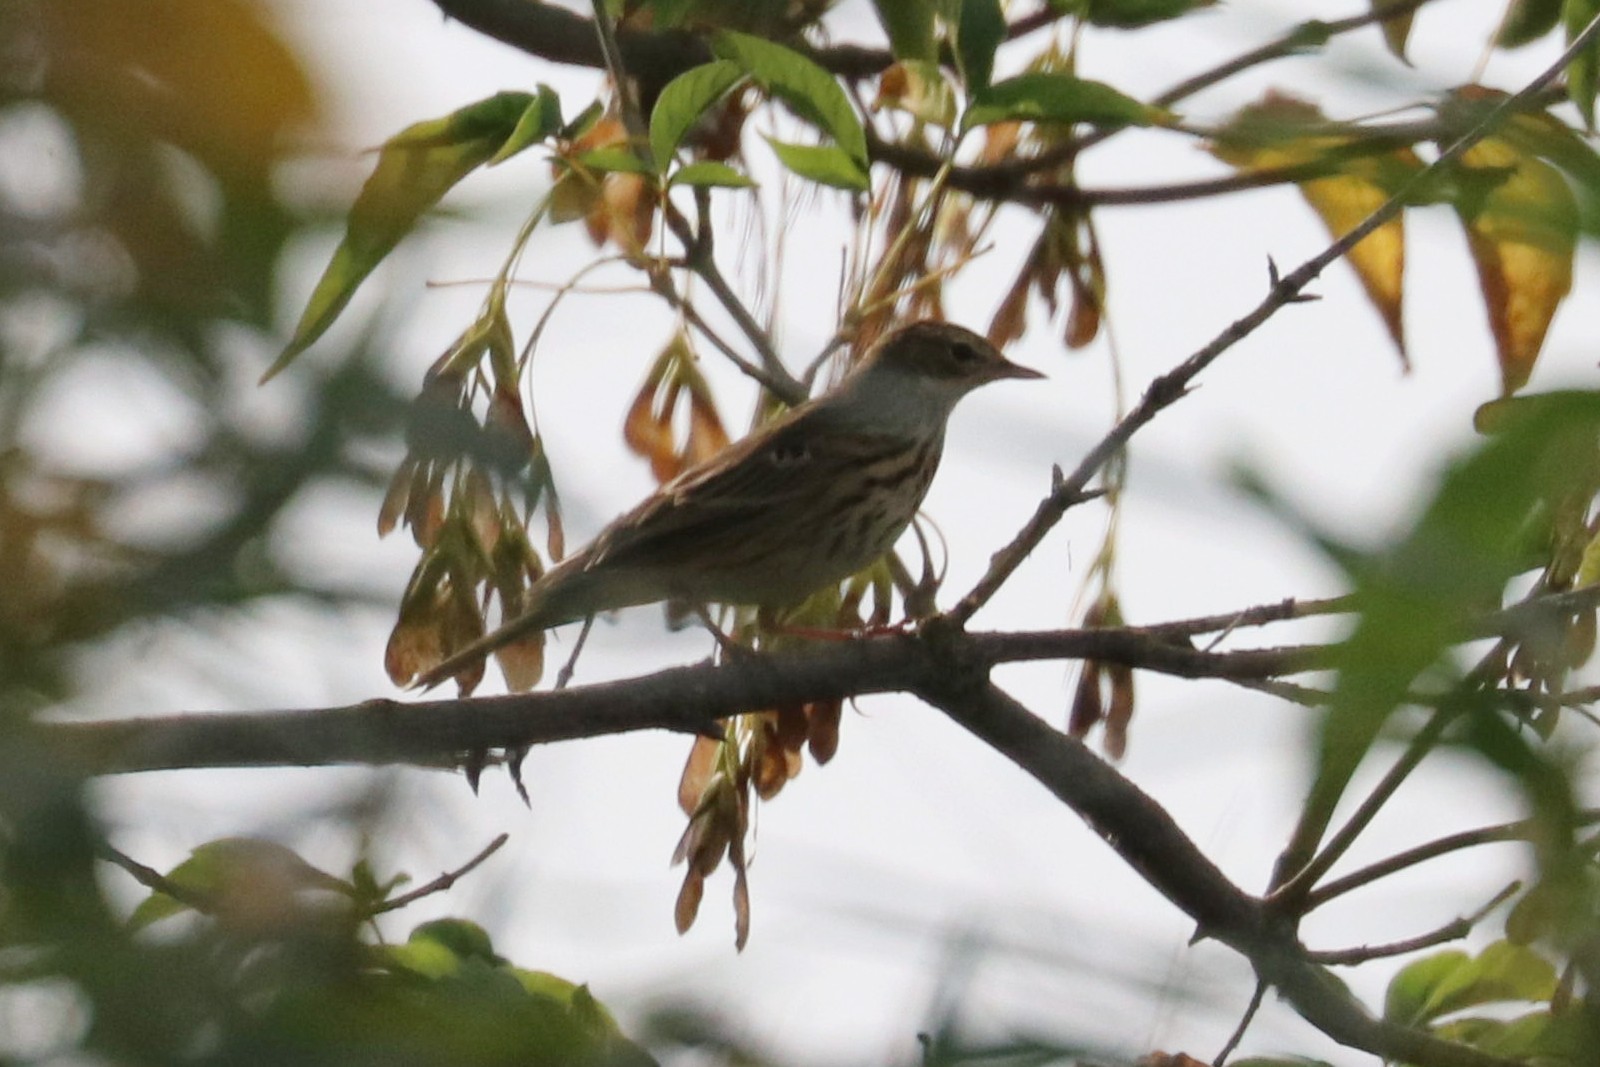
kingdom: Animalia
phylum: Chordata
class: Aves
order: Passeriformes
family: Motacillidae
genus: Anthus
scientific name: Anthus trivialis
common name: Tree pipit
